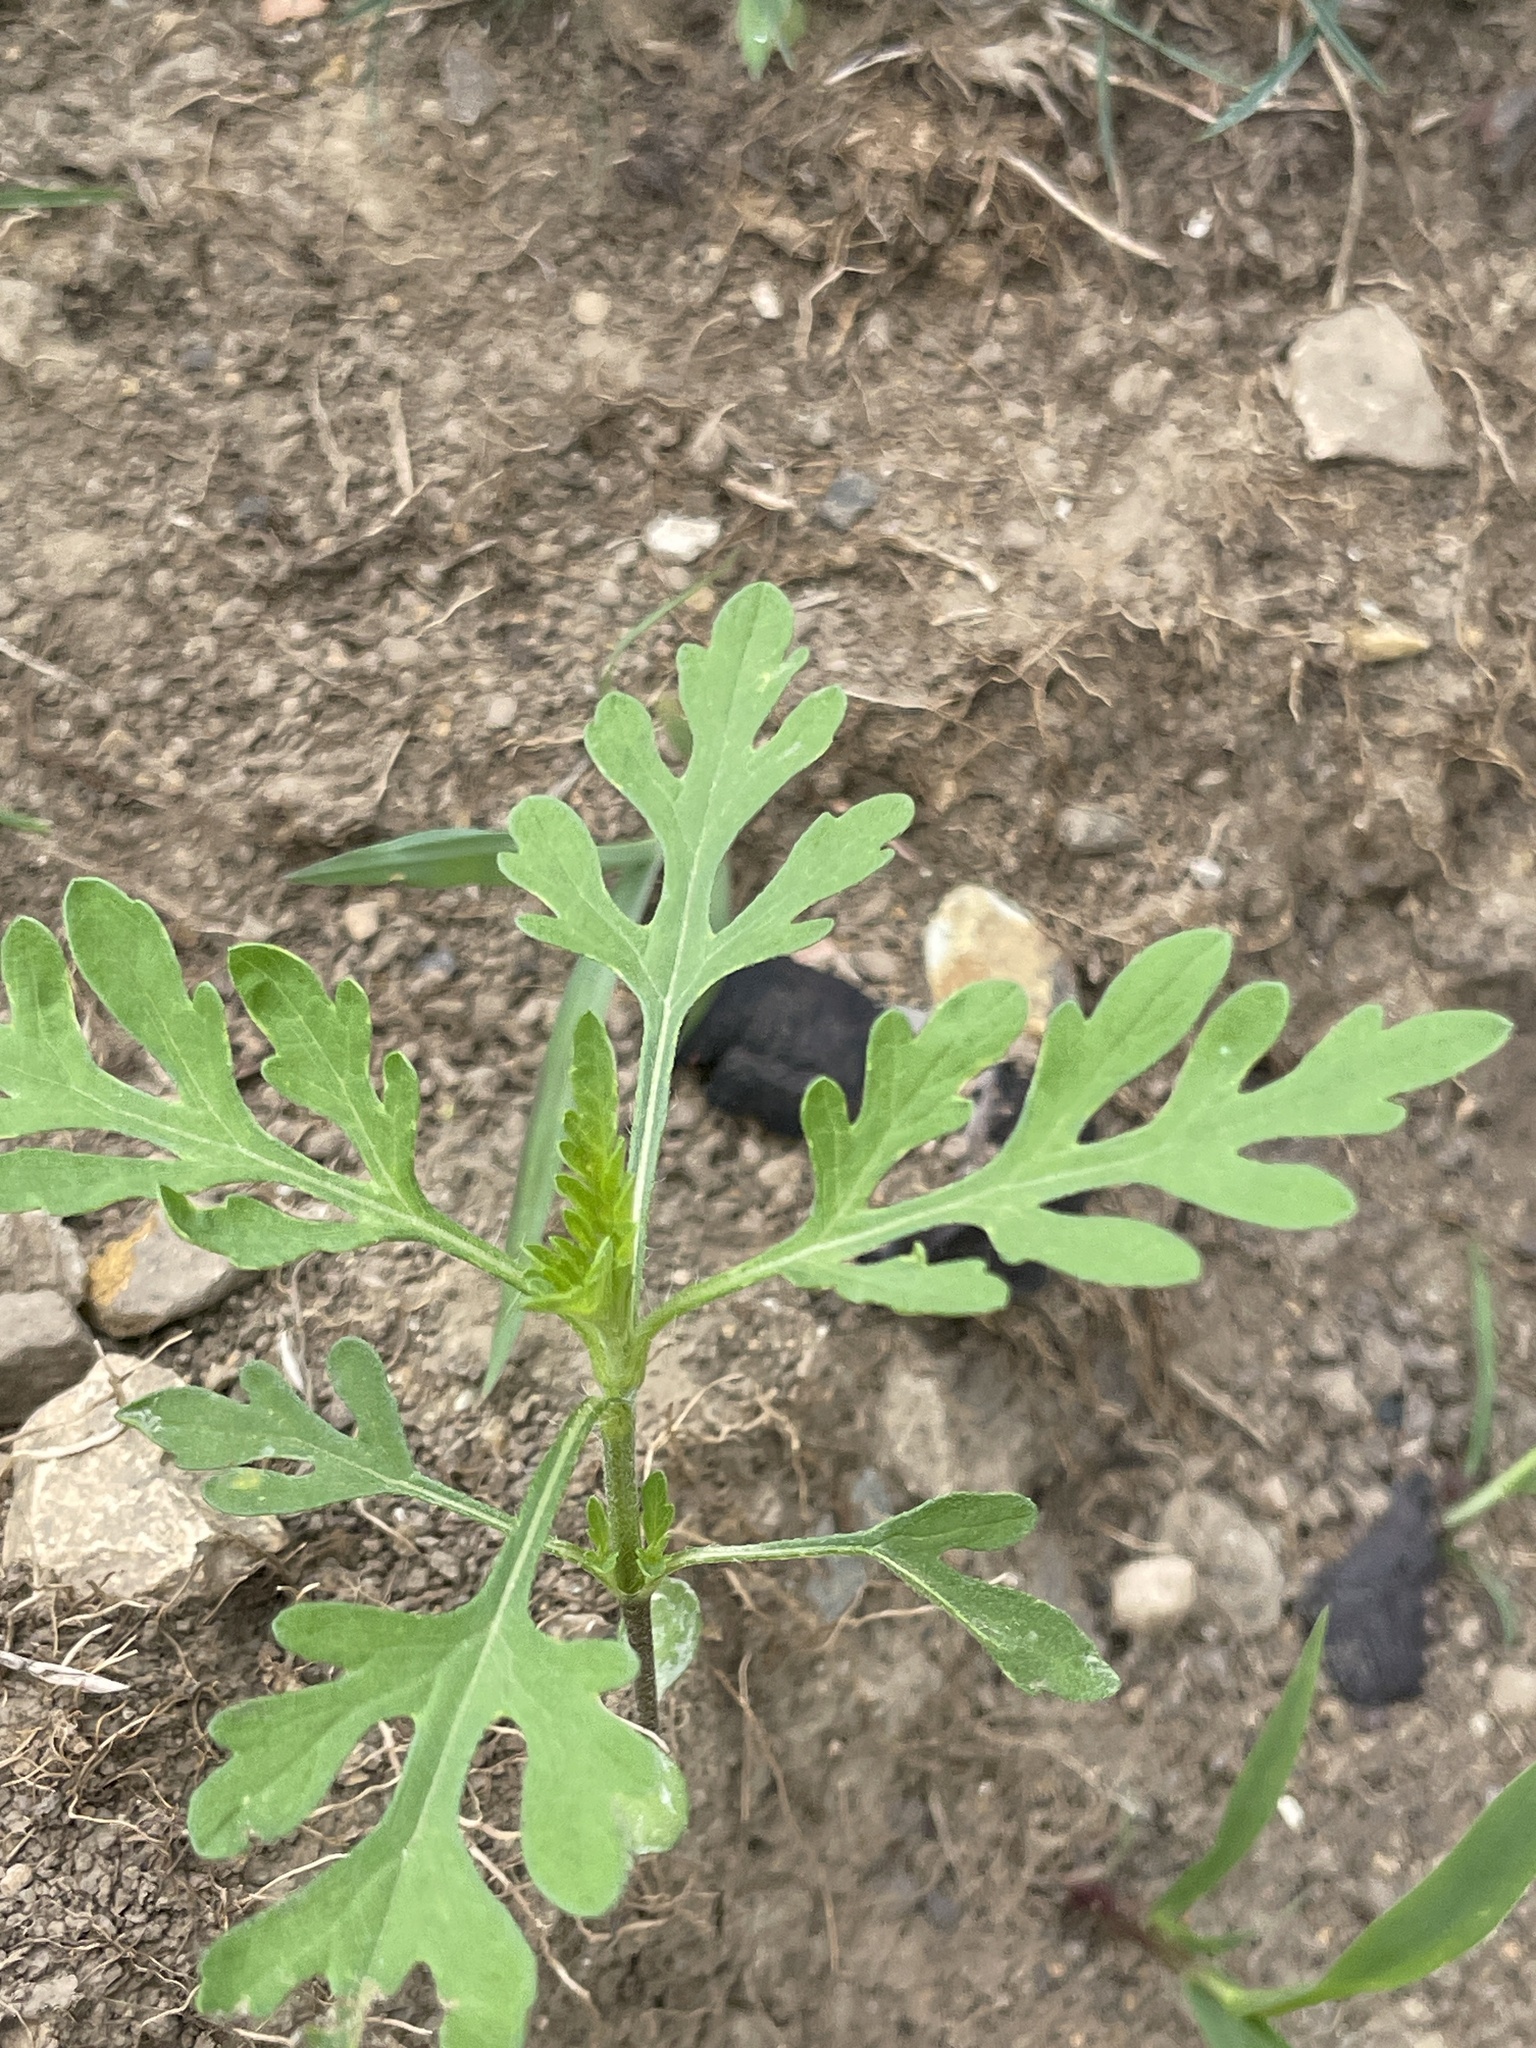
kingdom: Plantae
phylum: Tracheophyta
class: Magnoliopsida
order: Asterales
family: Asteraceae
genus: Ambrosia
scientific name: Ambrosia artemisiifolia
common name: Annual ragweed
